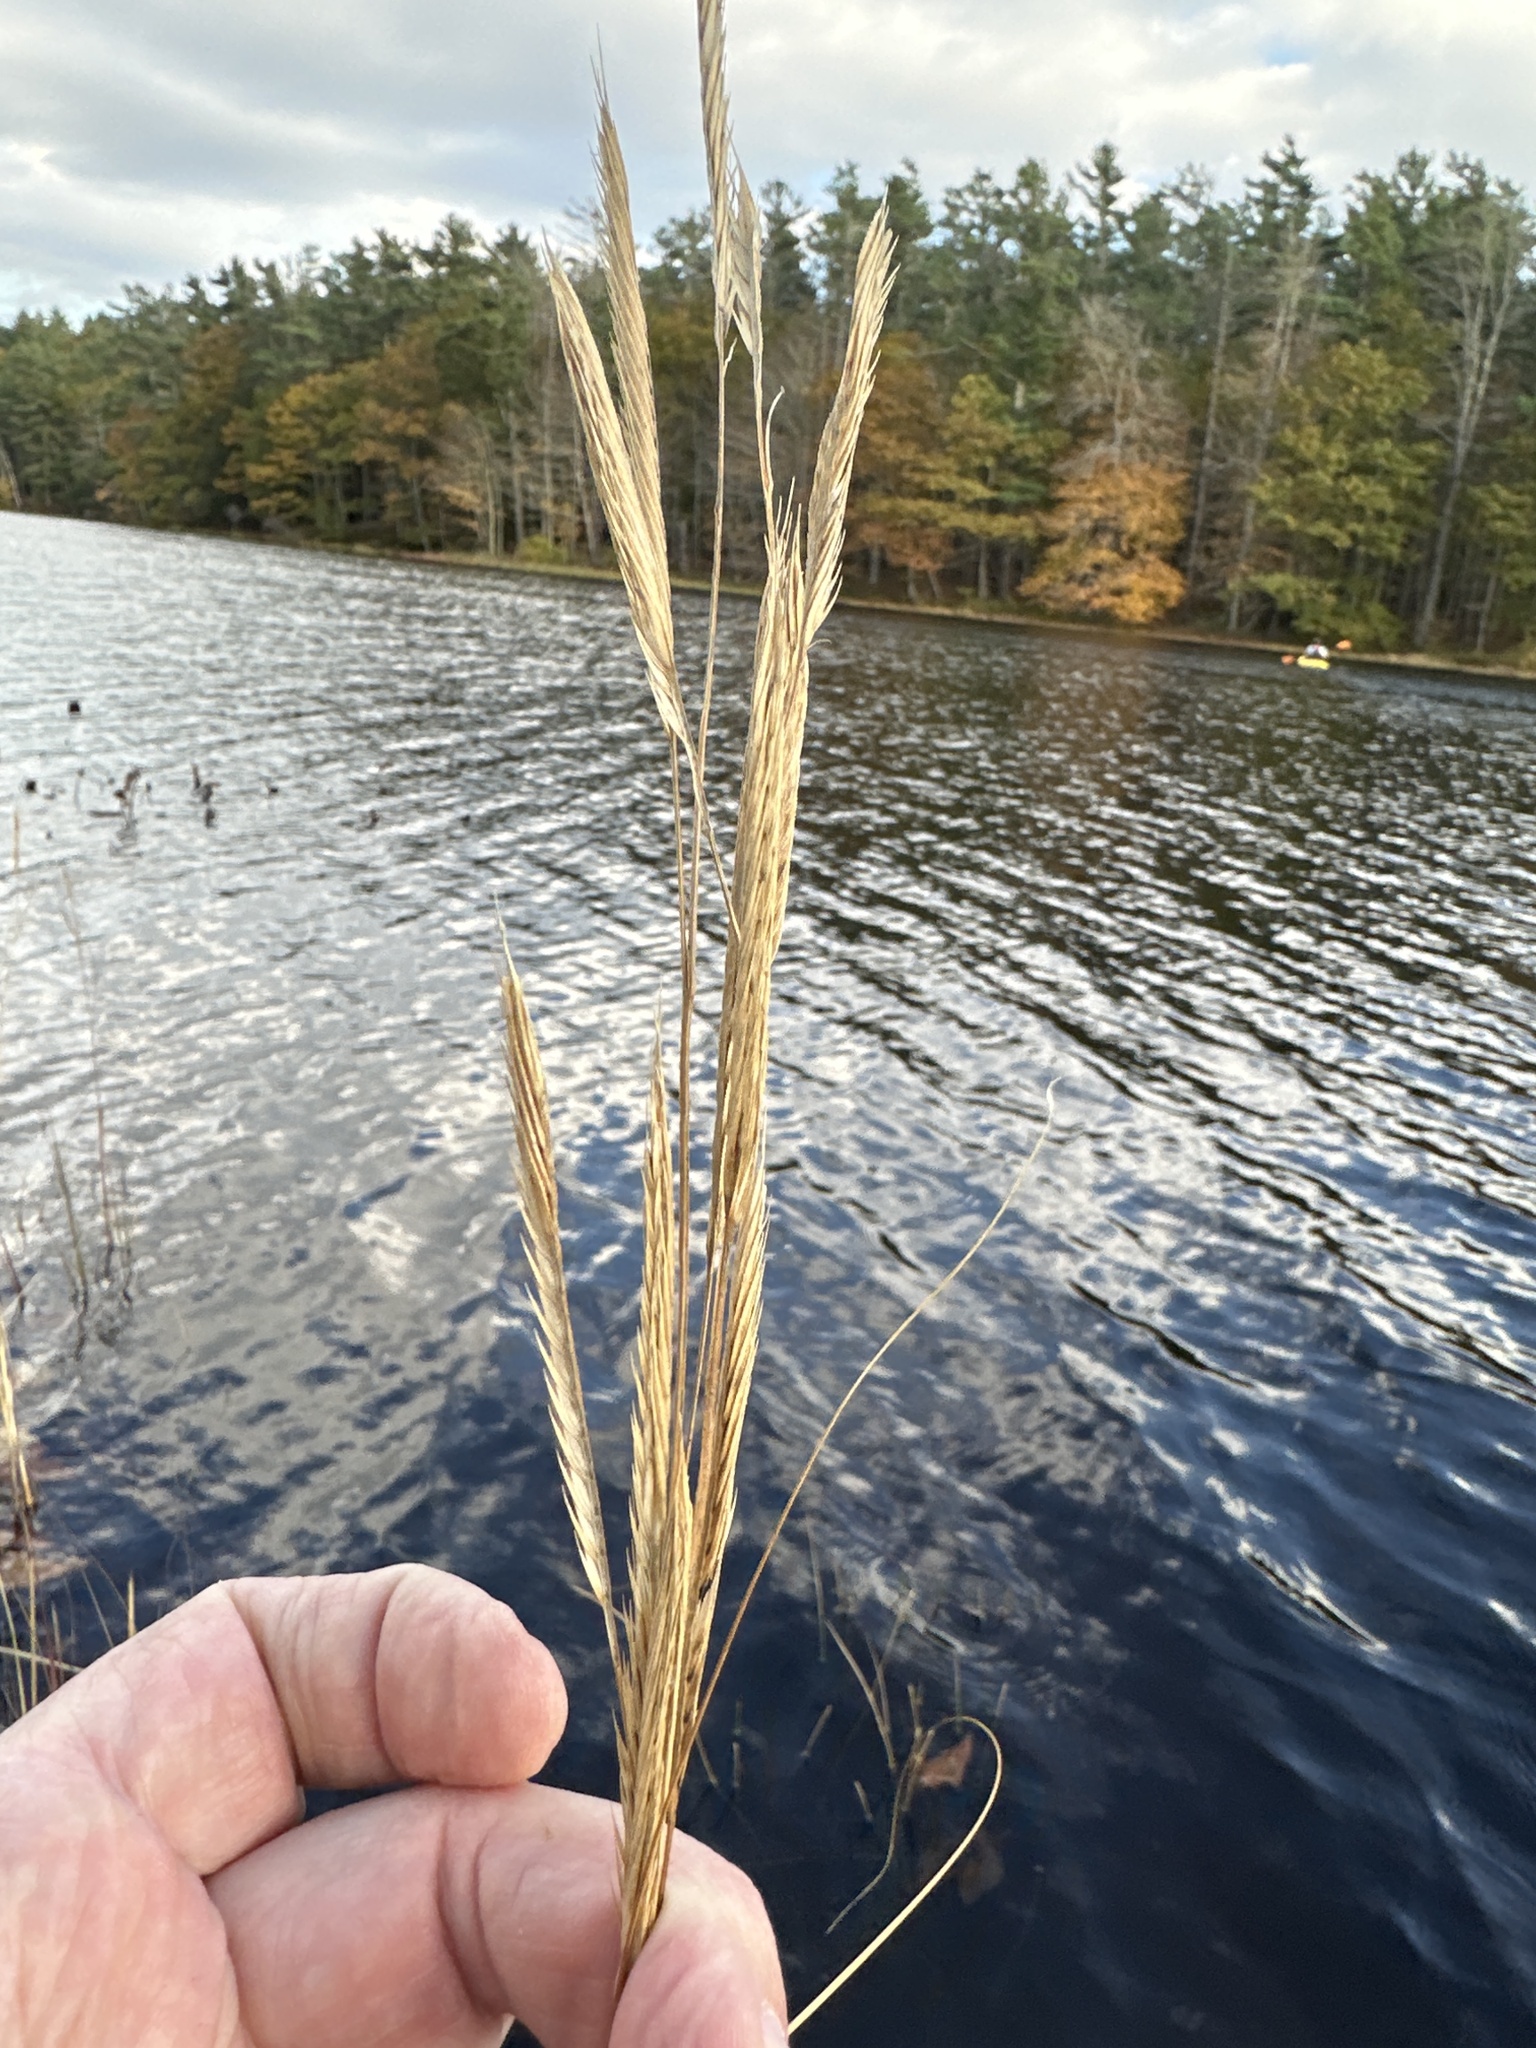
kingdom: Plantae
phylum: Tracheophyta
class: Liliopsida
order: Poales
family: Poaceae
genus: Sporobolus
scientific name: Sporobolus michauxianus
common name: Freshwater cordgrass
